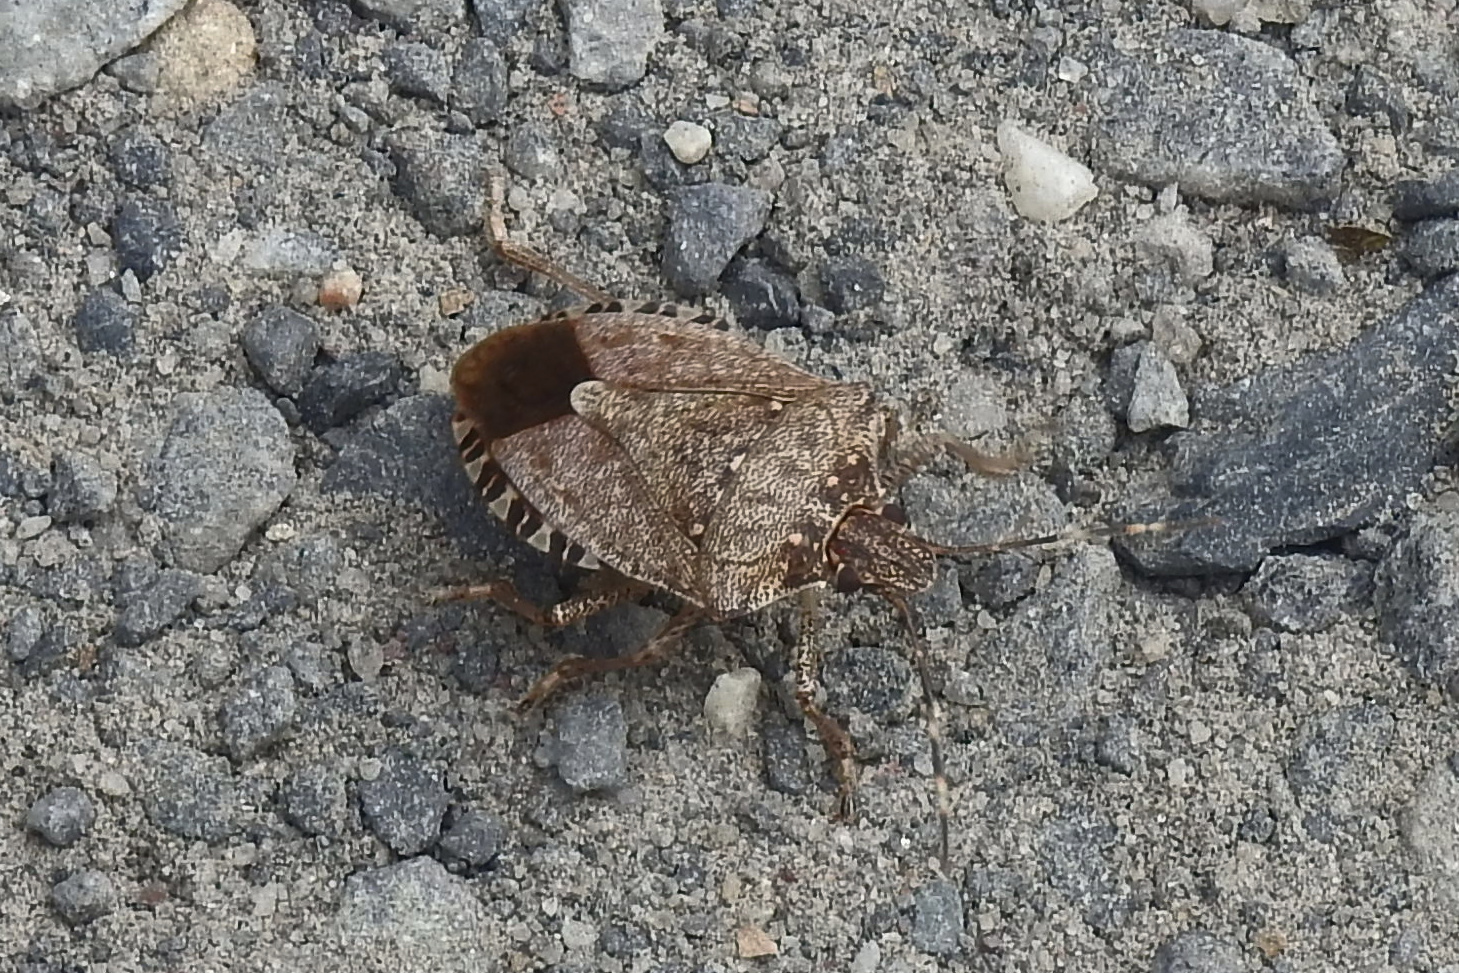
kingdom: Animalia
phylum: Arthropoda
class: Insecta
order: Hemiptera
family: Pentatomidae
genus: Halyomorpha
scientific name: Halyomorpha halys
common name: Brown marmorated stink bug
